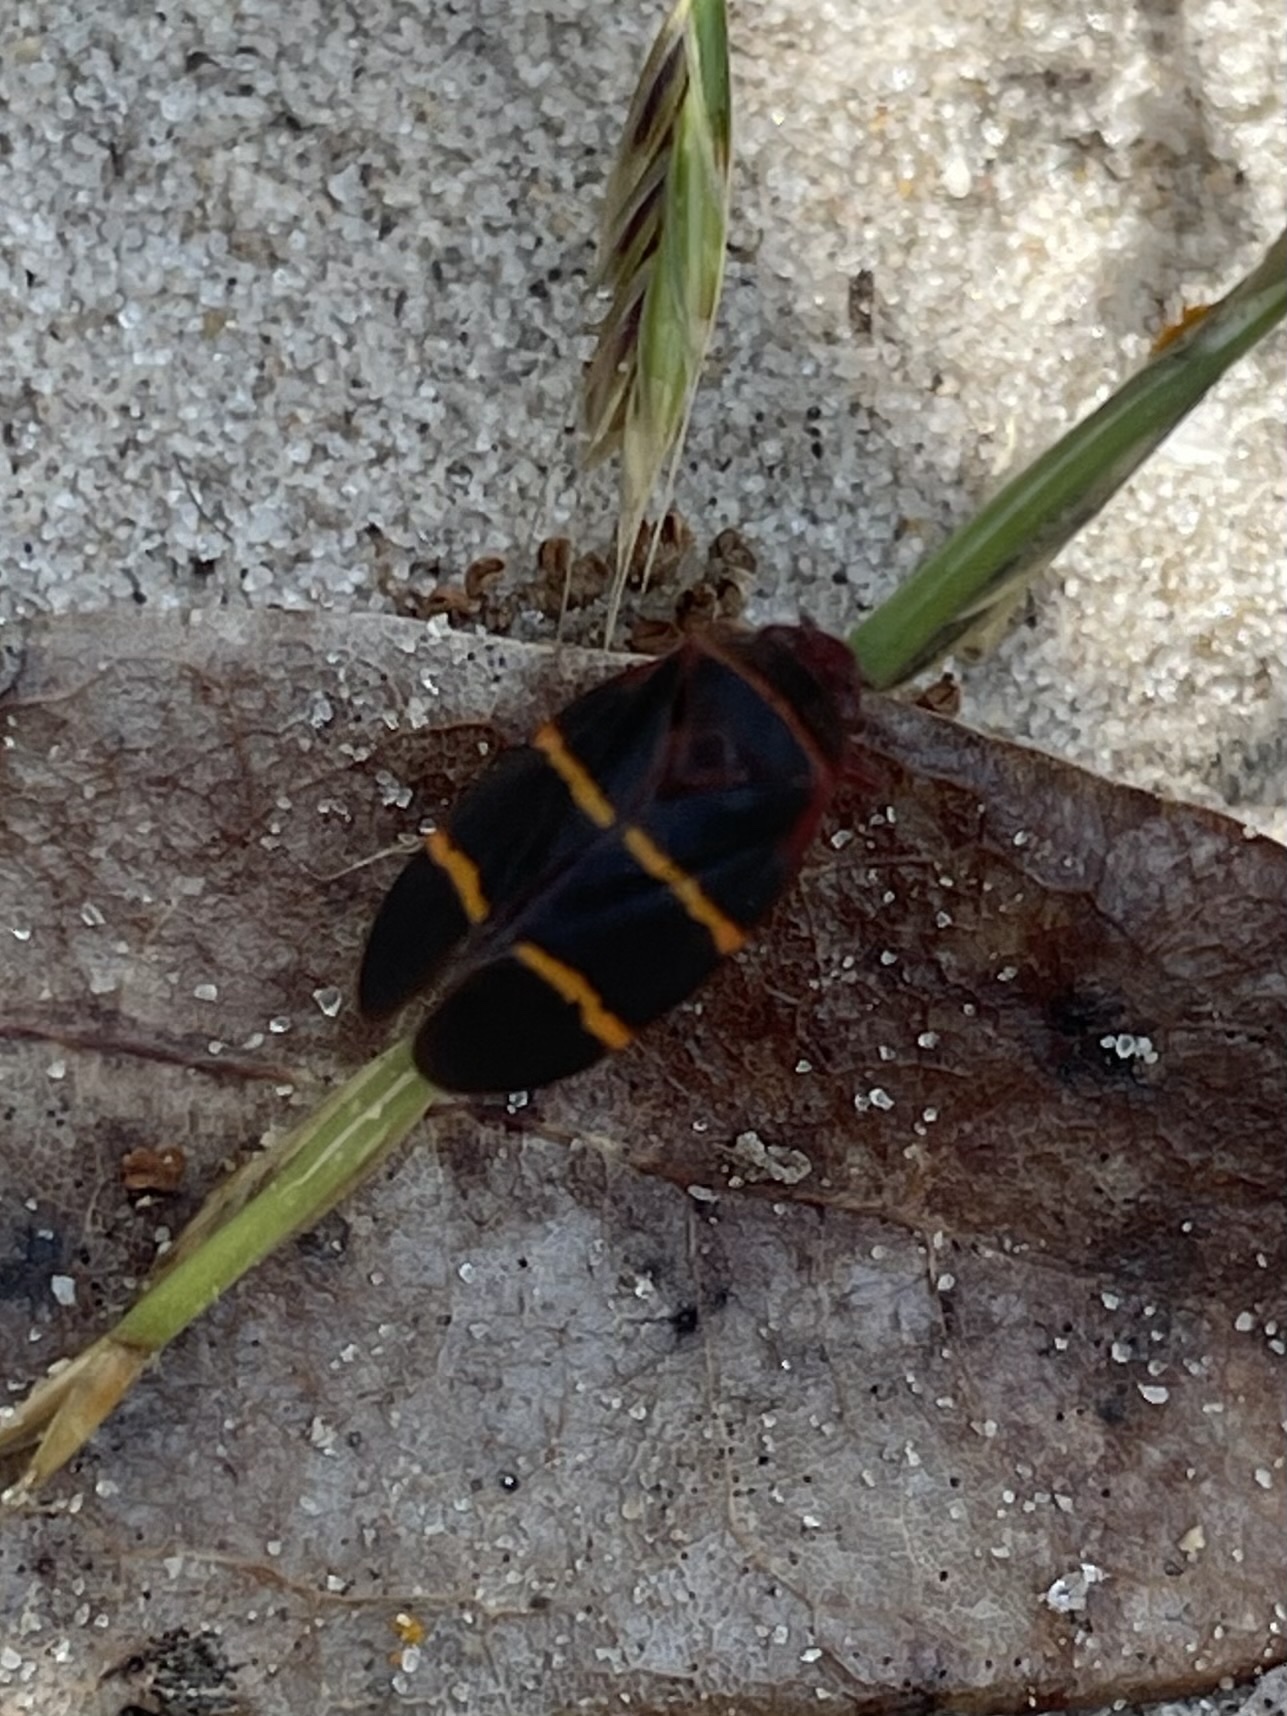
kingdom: Animalia
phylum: Arthropoda
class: Insecta
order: Hemiptera
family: Cercopidae
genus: Prosapia
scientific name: Prosapia bicincta
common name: Twolined spittlebug
